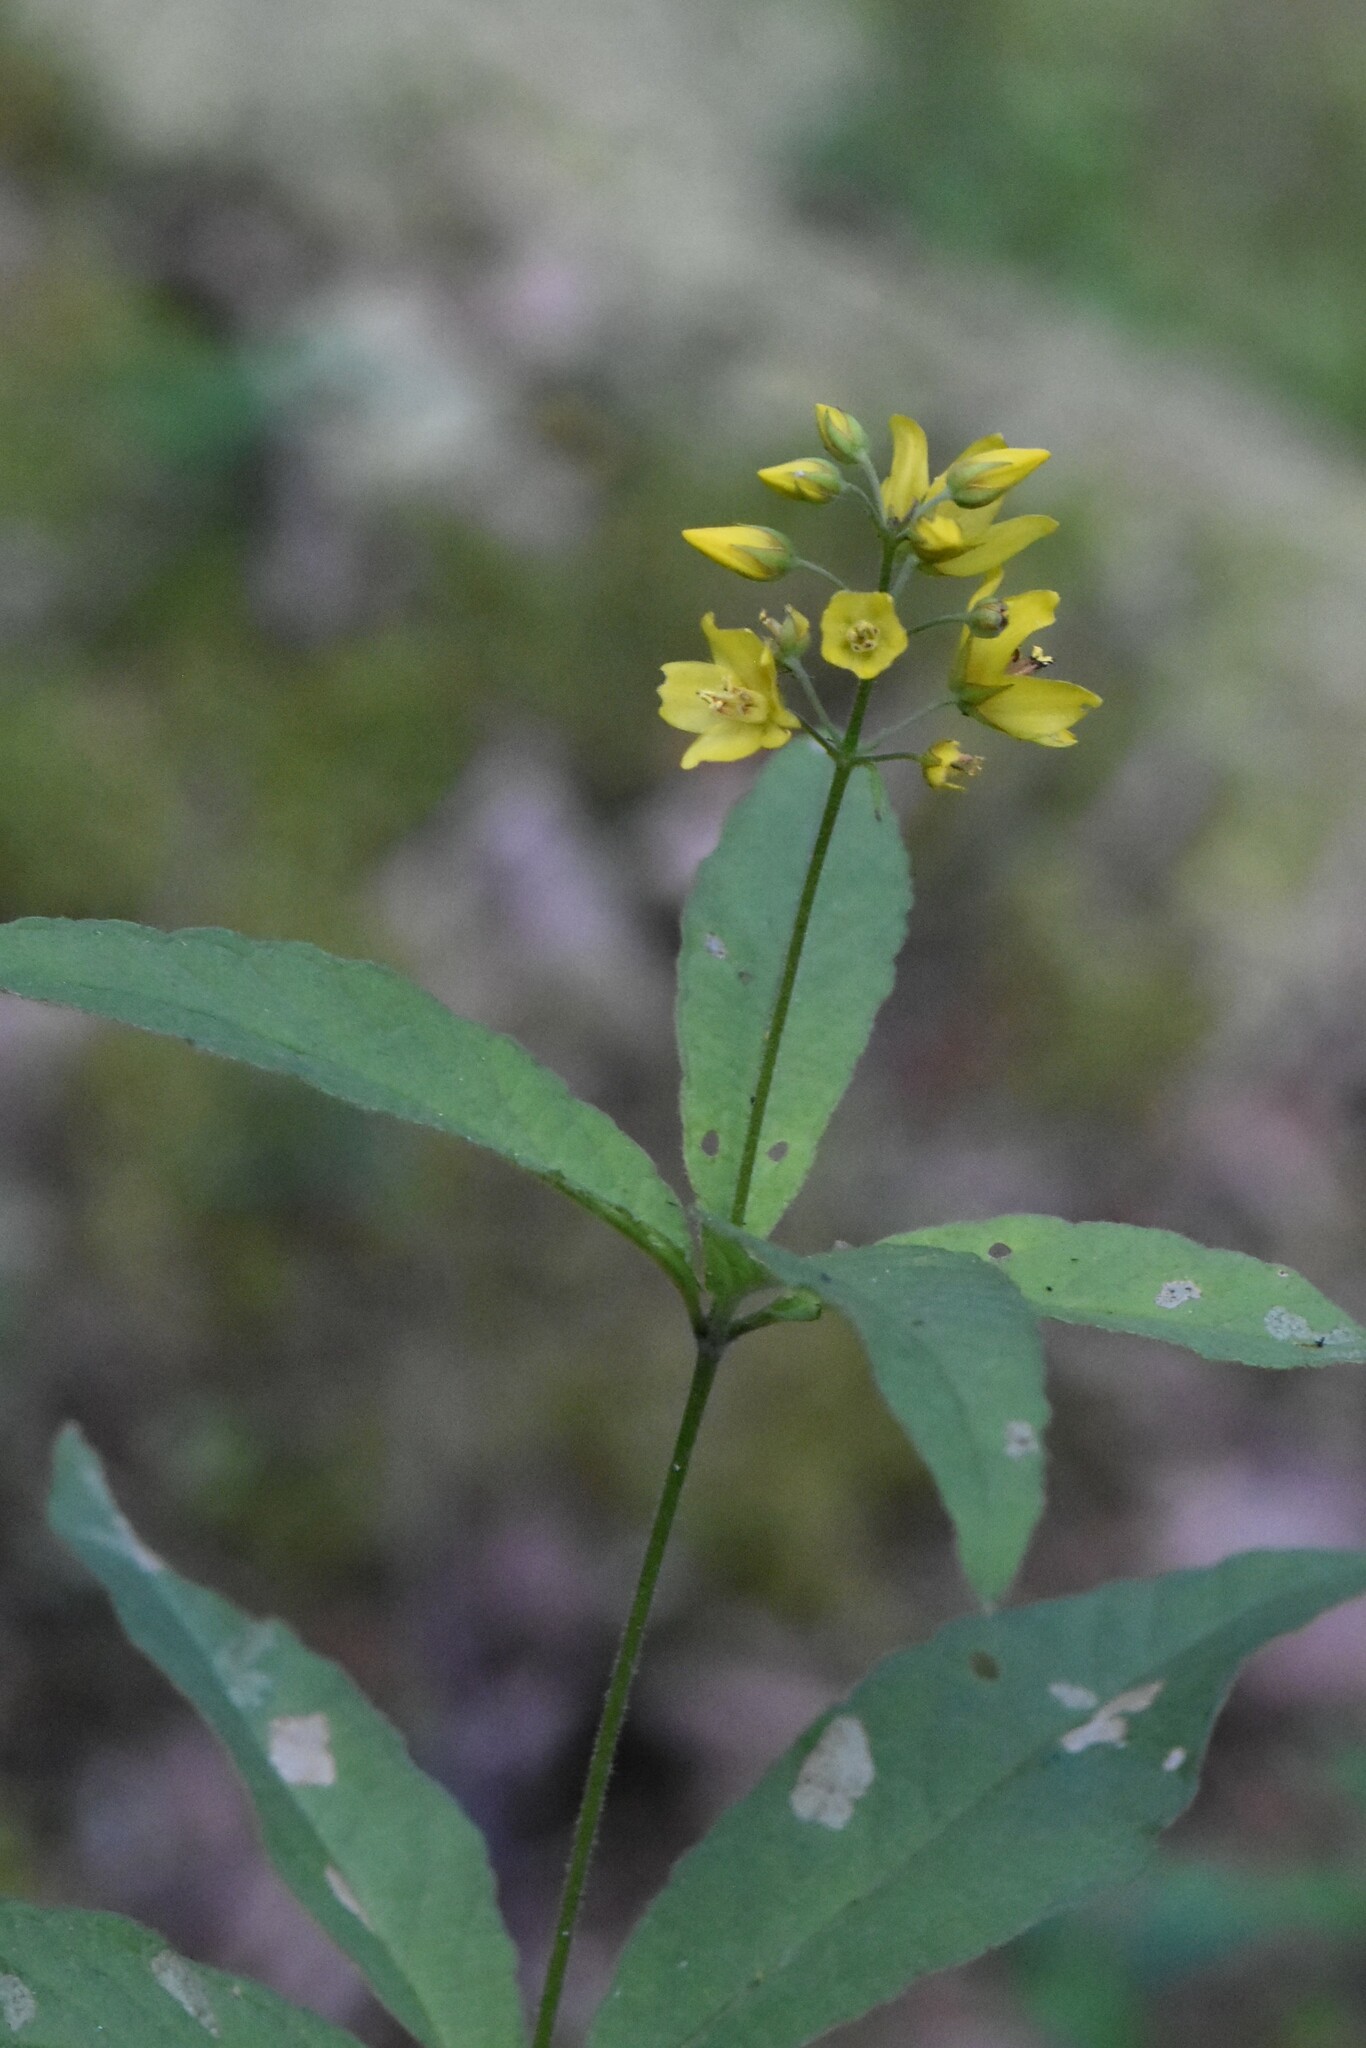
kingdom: Plantae
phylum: Tracheophyta
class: Magnoliopsida
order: Ericales
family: Primulaceae
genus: Lysimachia
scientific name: Lysimachia vulgaris
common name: Yellow loosestrife
